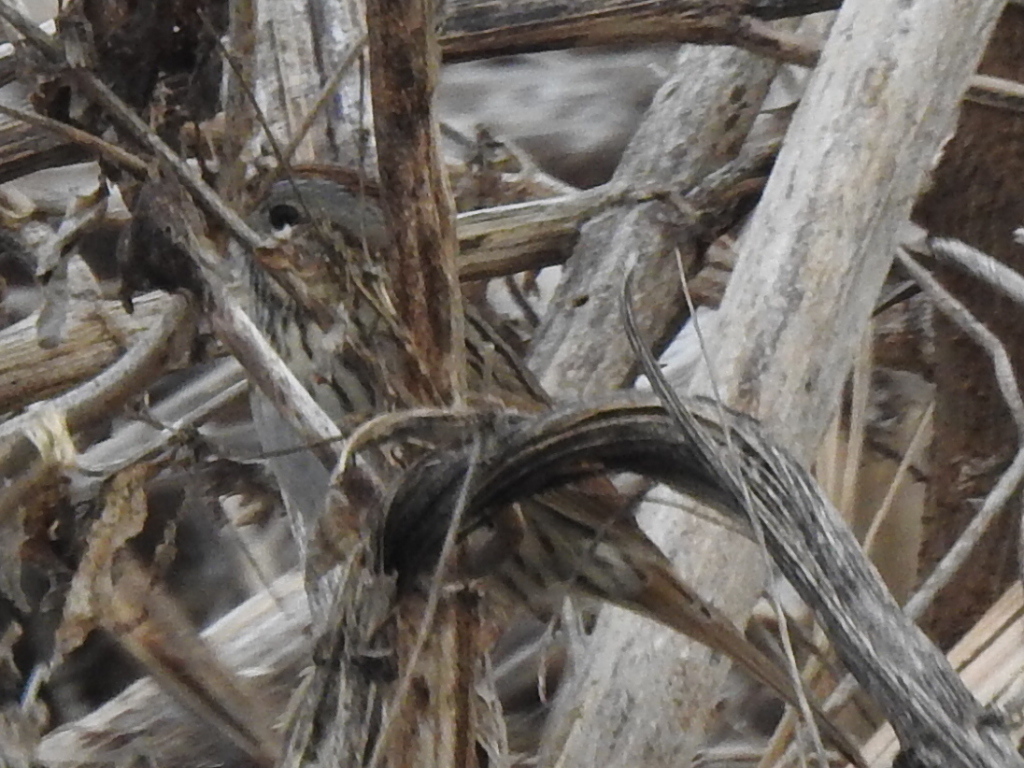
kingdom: Animalia
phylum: Chordata
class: Aves
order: Passeriformes
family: Passerellidae
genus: Melospiza
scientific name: Melospiza lincolnii
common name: Lincoln's sparrow
